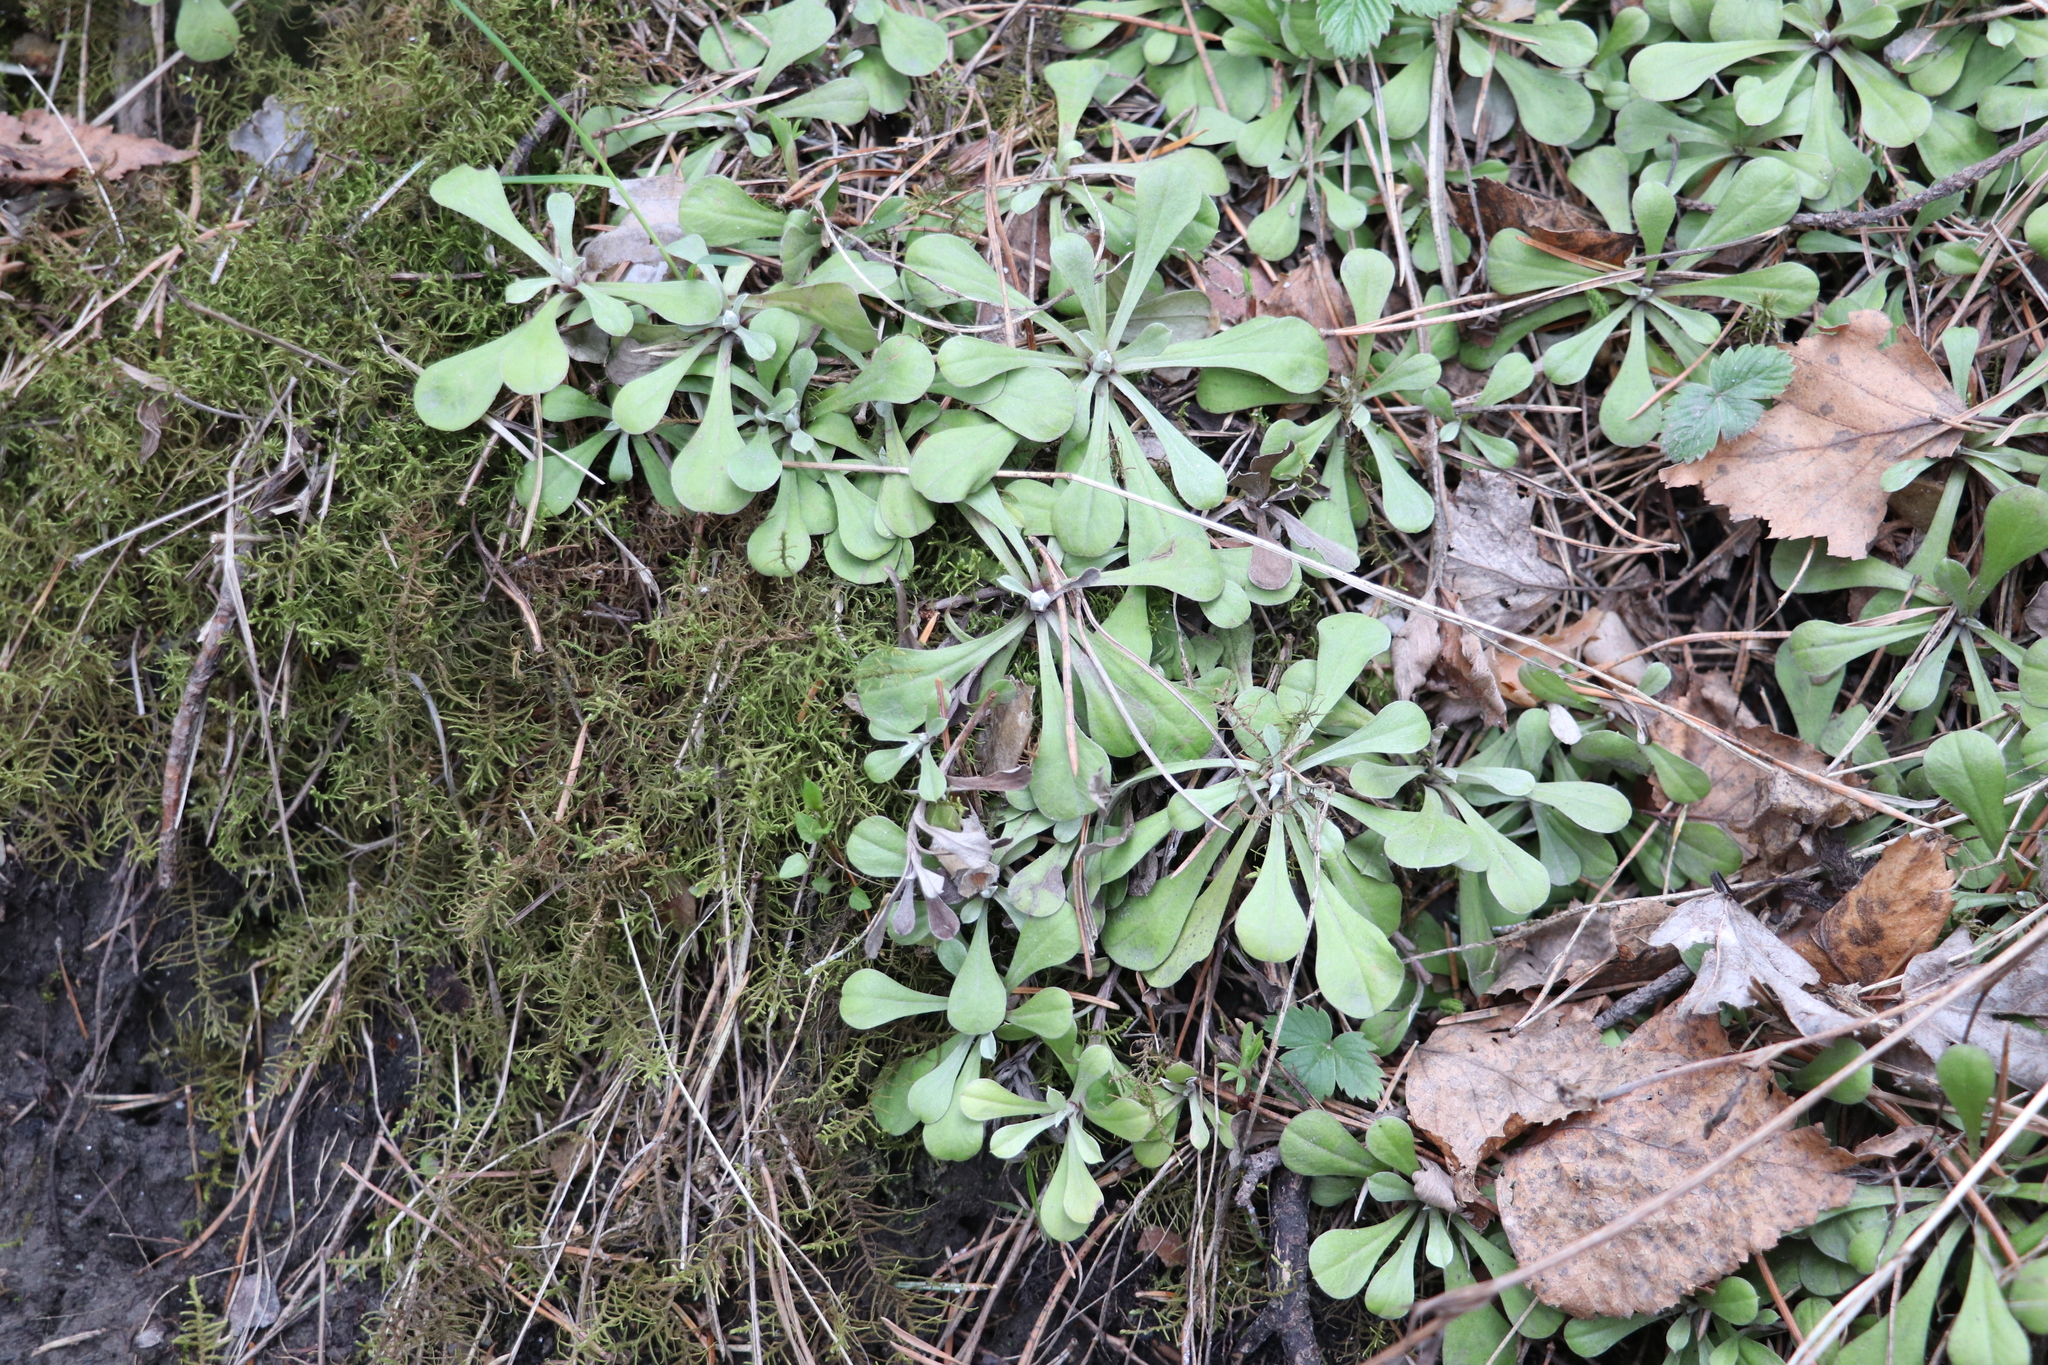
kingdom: Plantae
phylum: Tracheophyta
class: Magnoliopsida
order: Asterales
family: Asteraceae
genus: Antennaria
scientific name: Antennaria dioica
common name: Mountain everlasting
